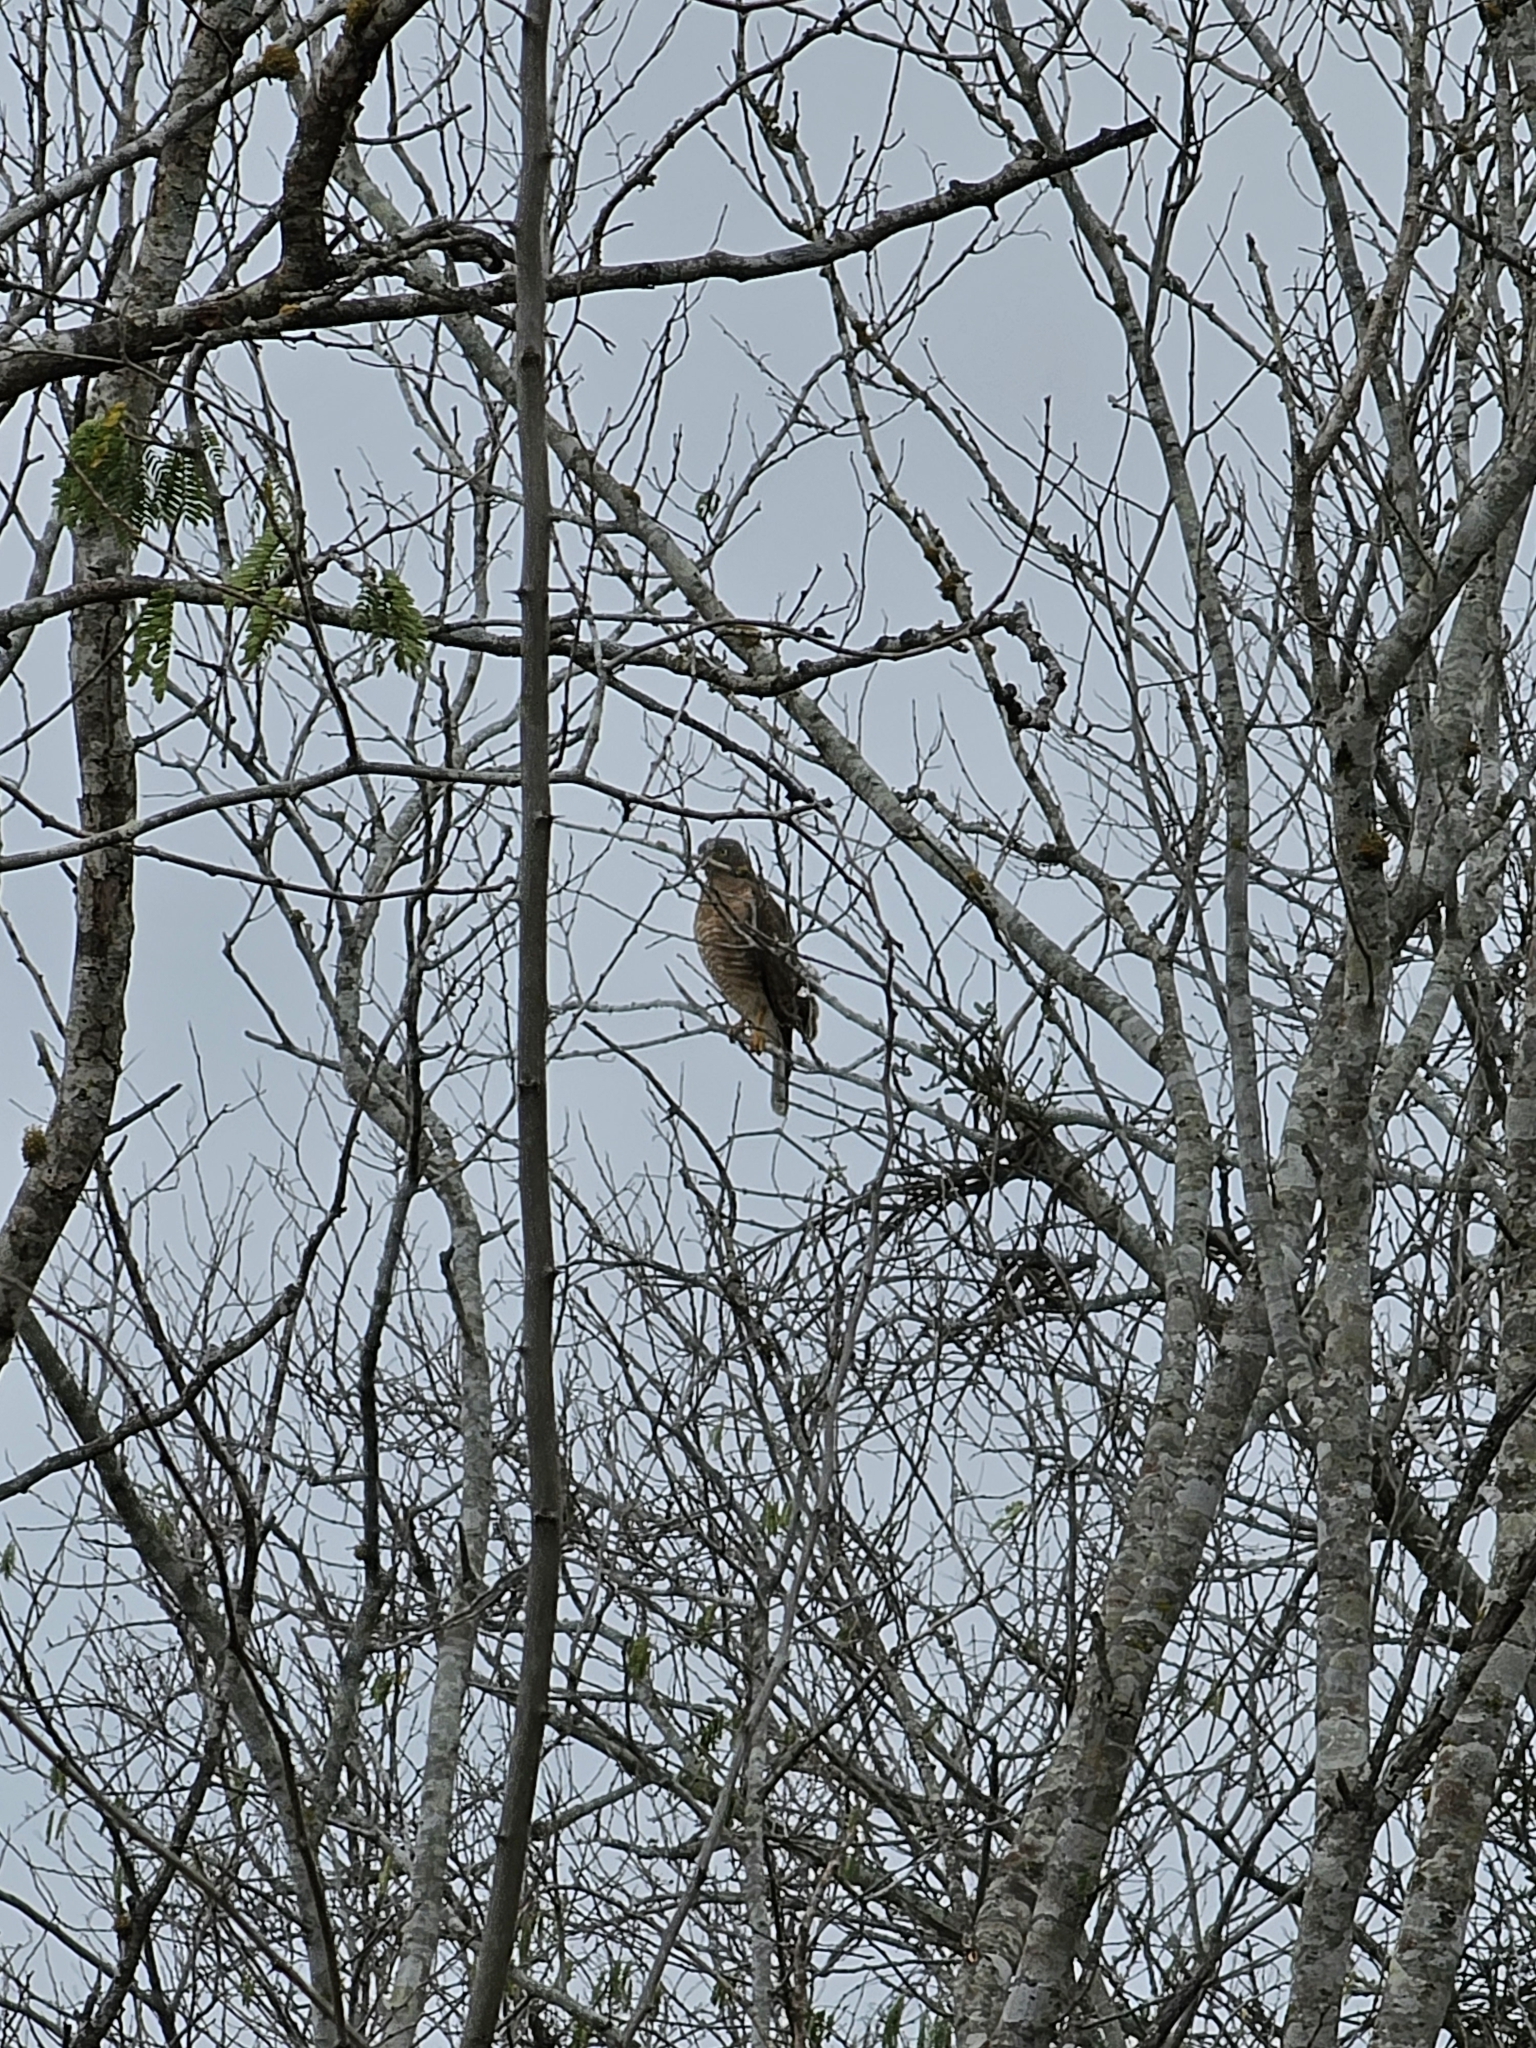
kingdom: Animalia
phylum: Chordata
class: Aves
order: Accipitriformes
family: Accipitridae
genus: Rupornis
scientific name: Rupornis magnirostris
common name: Roadside hawk
